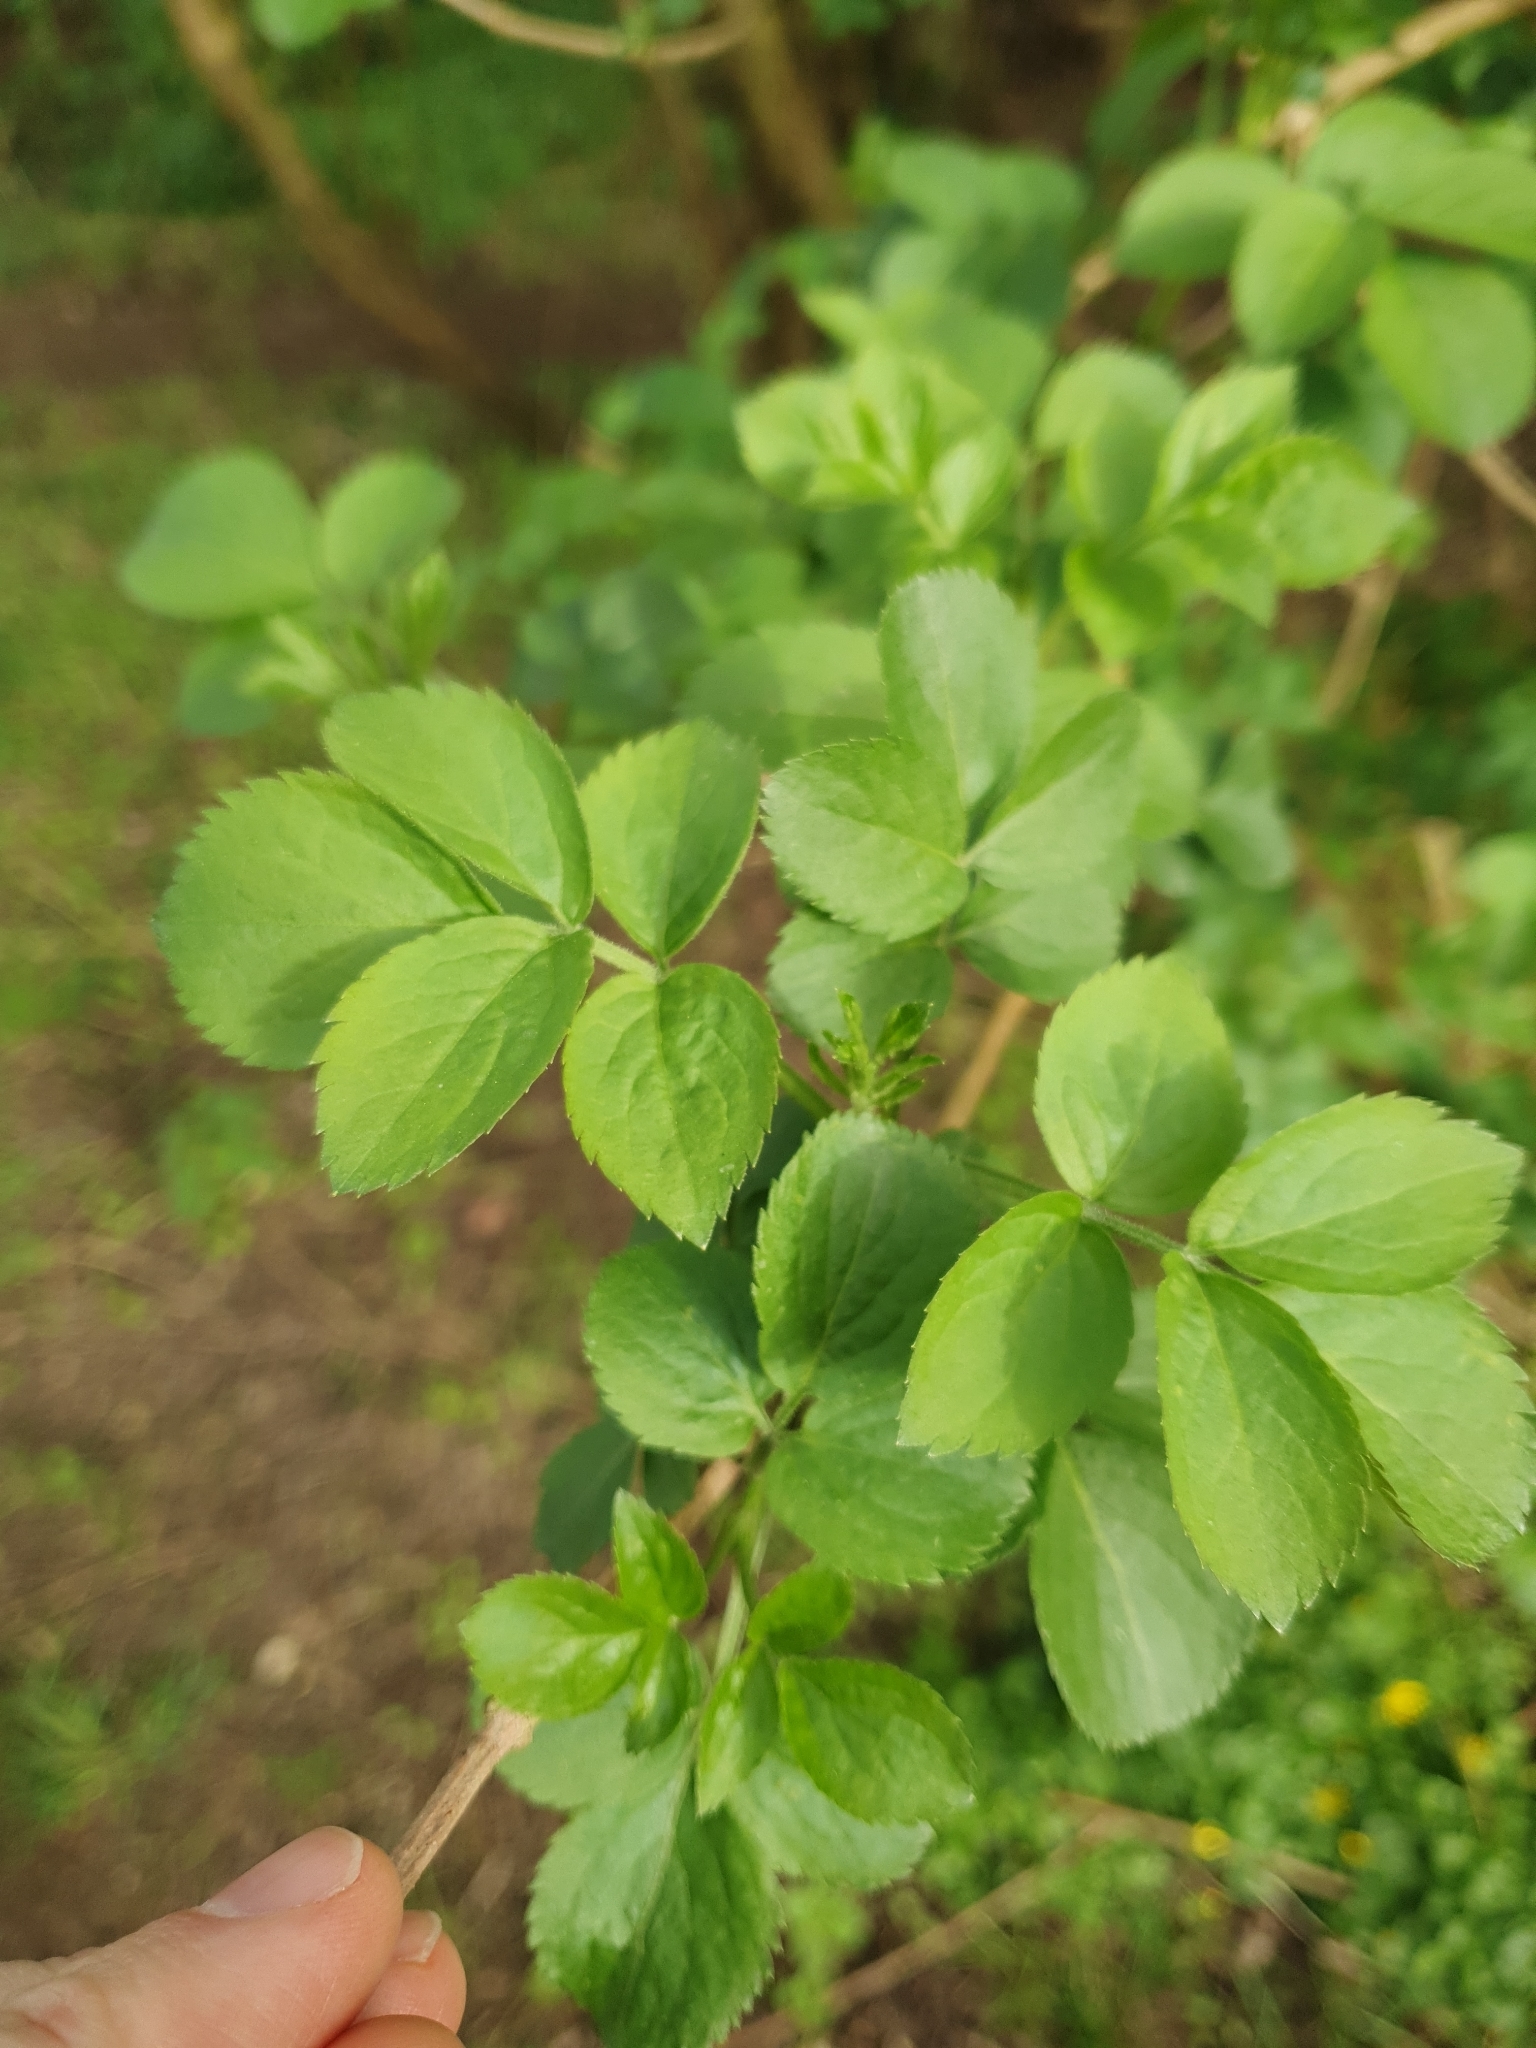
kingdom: Plantae
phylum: Tracheophyta
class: Magnoliopsida
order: Dipsacales
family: Viburnaceae
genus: Sambucus
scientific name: Sambucus nigra
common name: Elder
